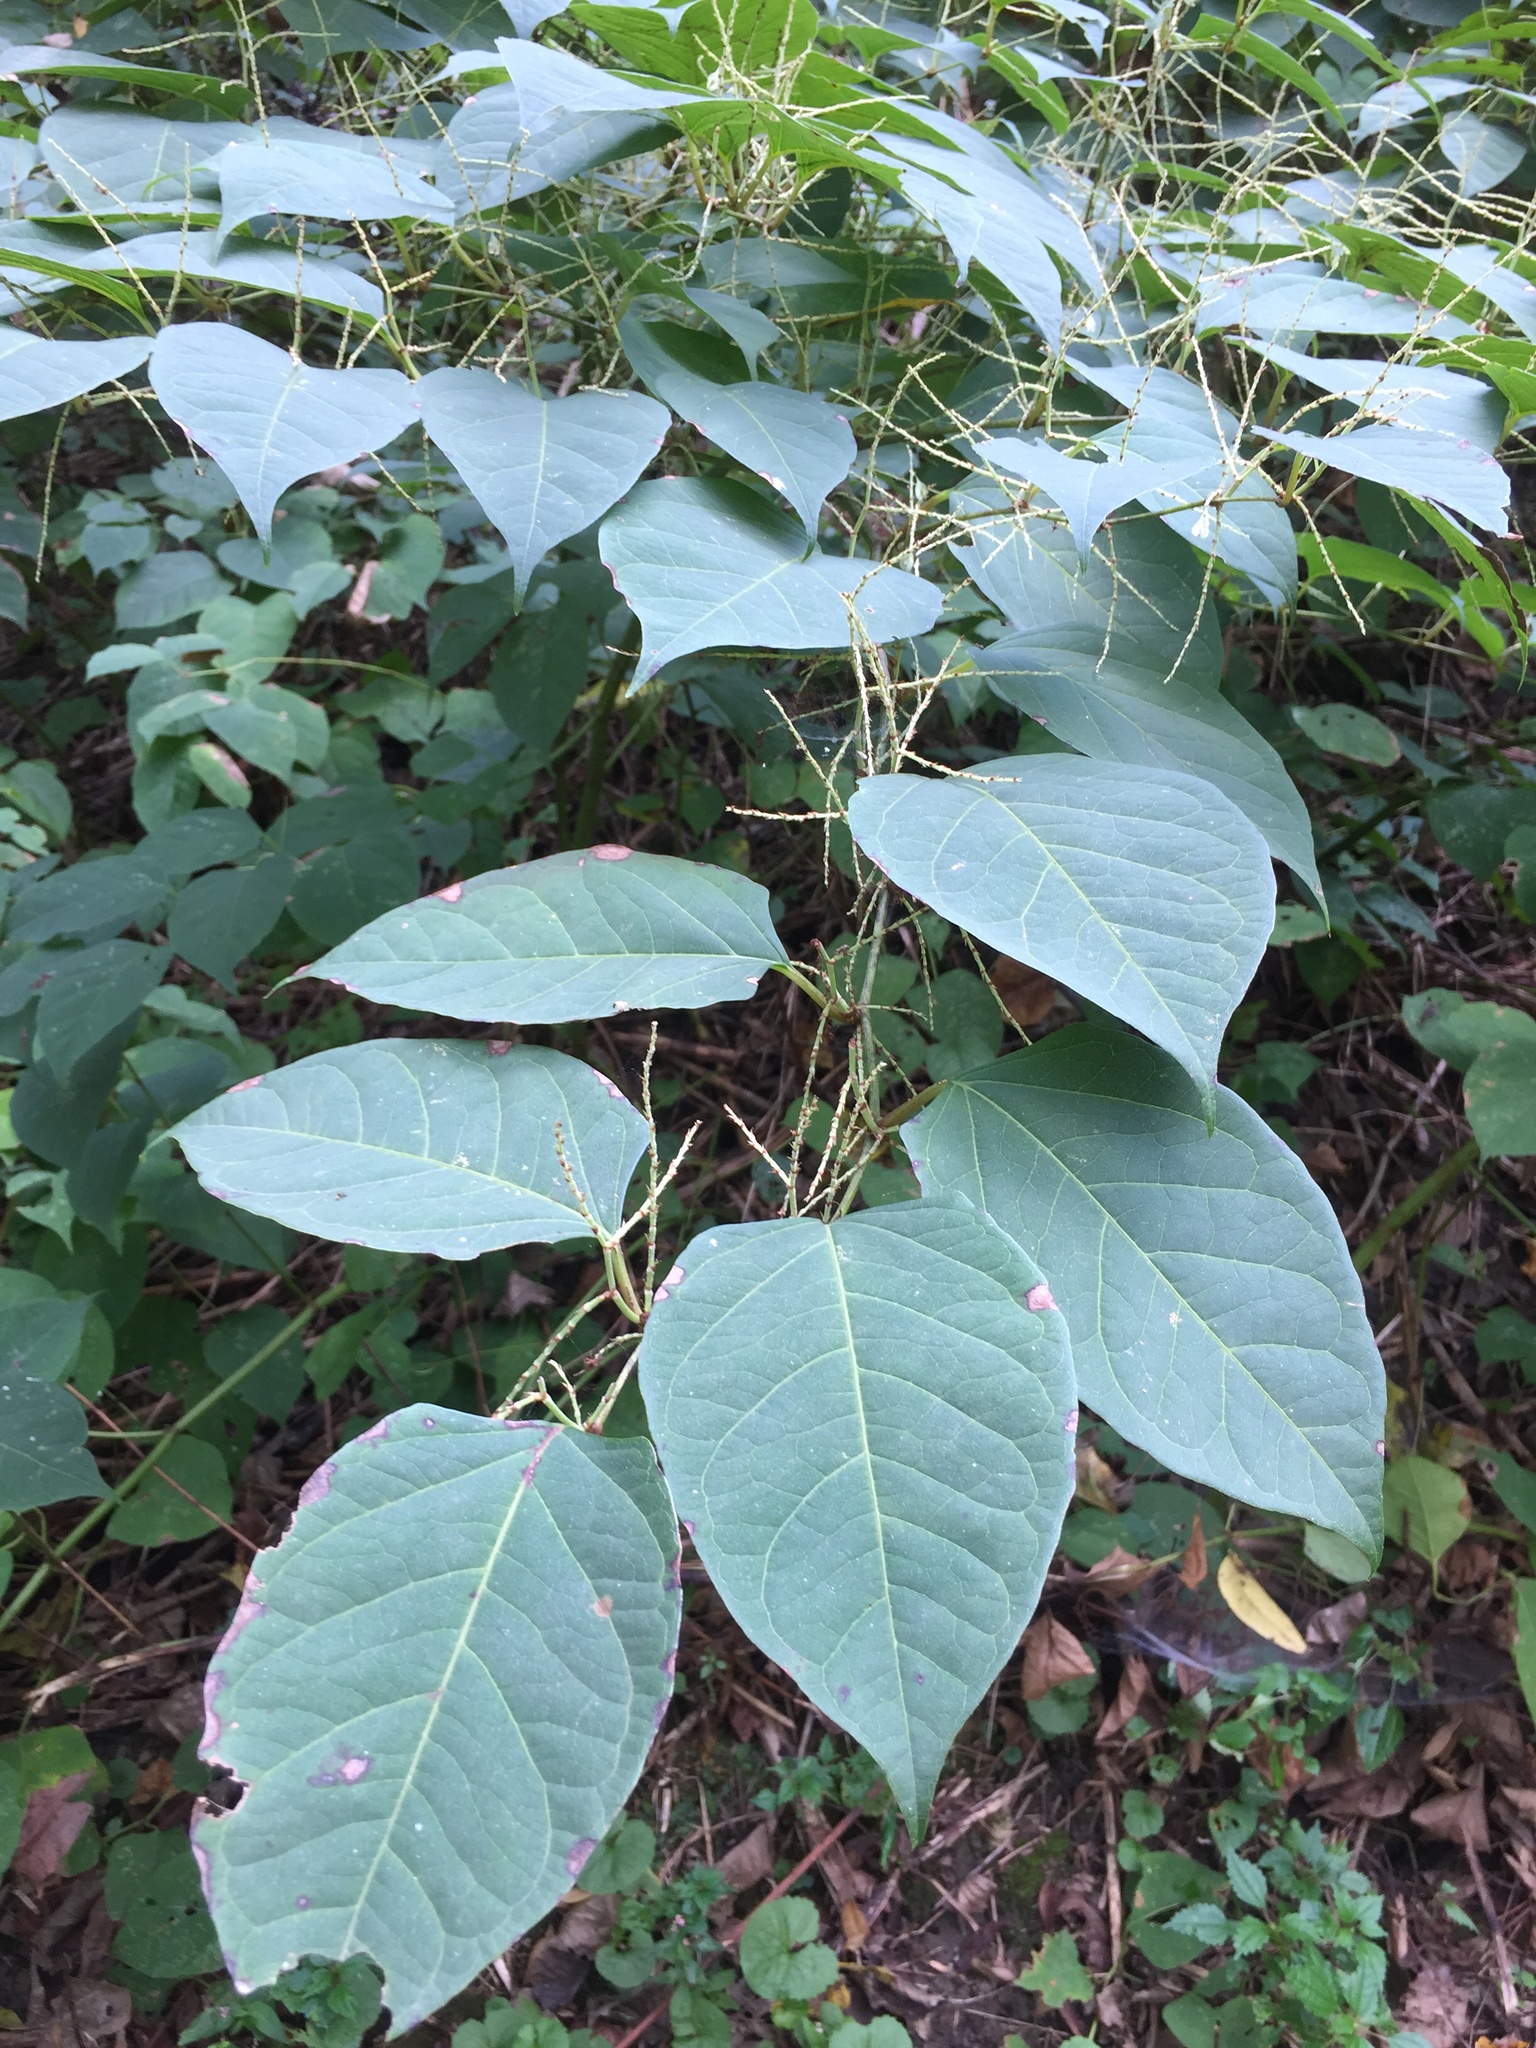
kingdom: Plantae
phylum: Tracheophyta
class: Magnoliopsida
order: Caryophyllales
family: Polygonaceae
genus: Reynoutria
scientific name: Reynoutria japonica
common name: Japanese knotweed
